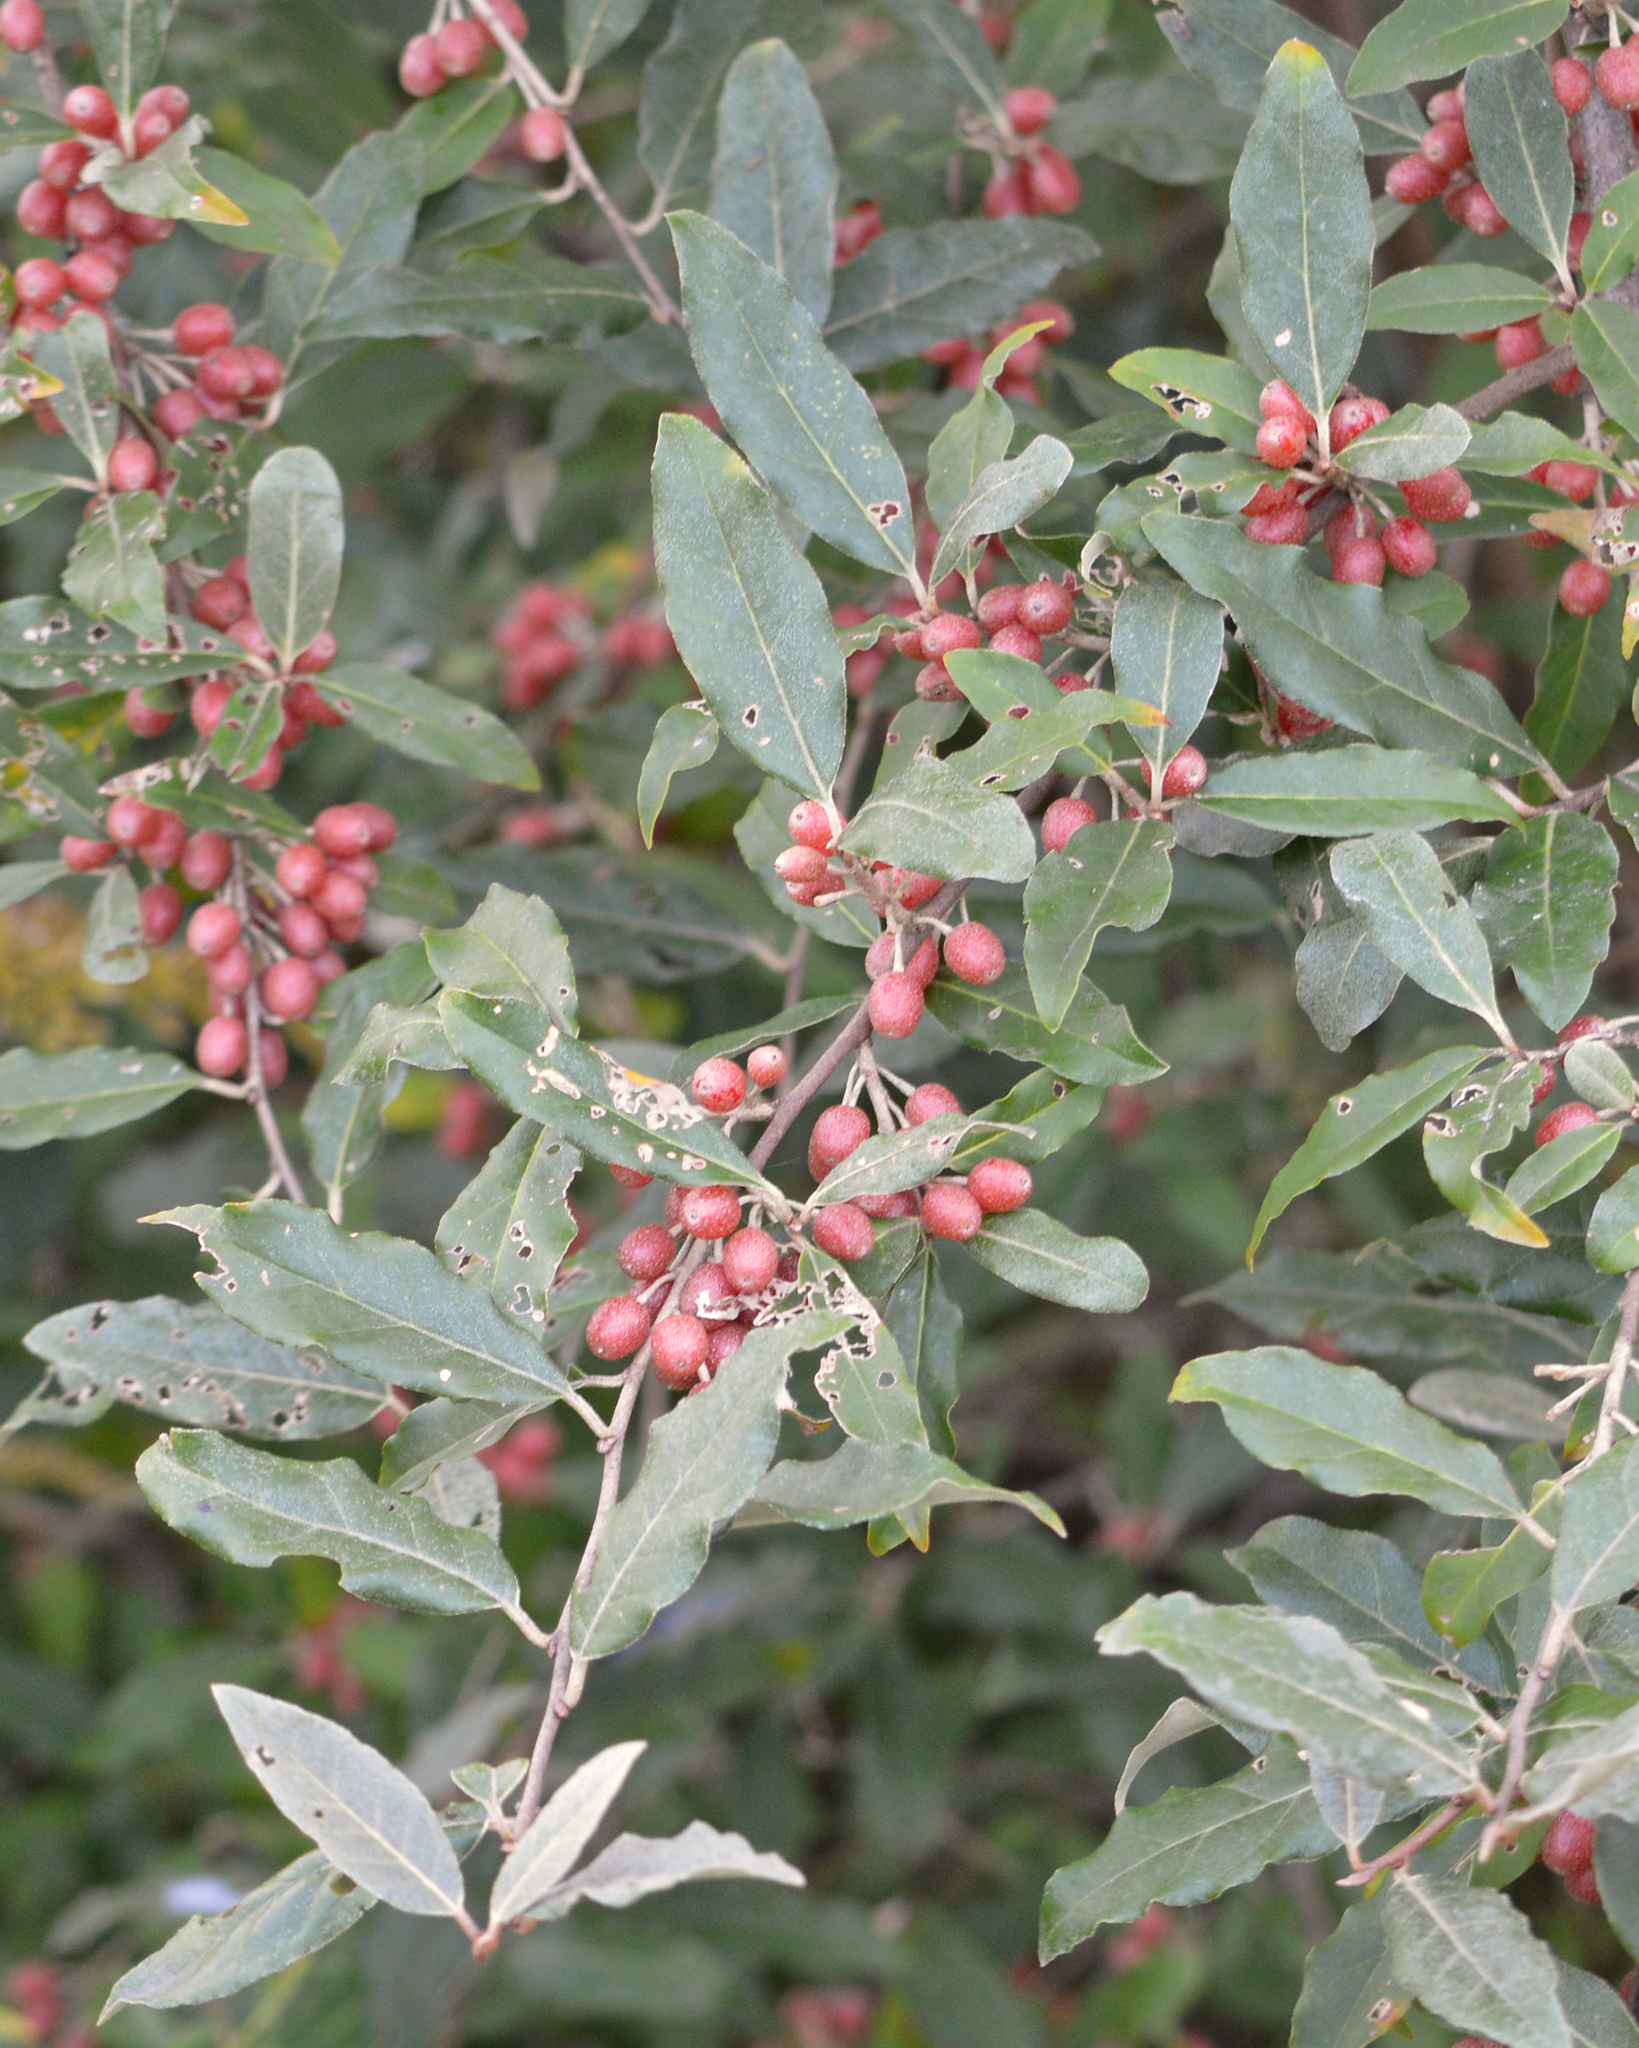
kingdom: Plantae
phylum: Tracheophyta
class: Magnoliopsida
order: Rosales
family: Elaeagnaceae
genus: Elaeagnus
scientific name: Elaeagnus umbellata
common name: Autumn olive
